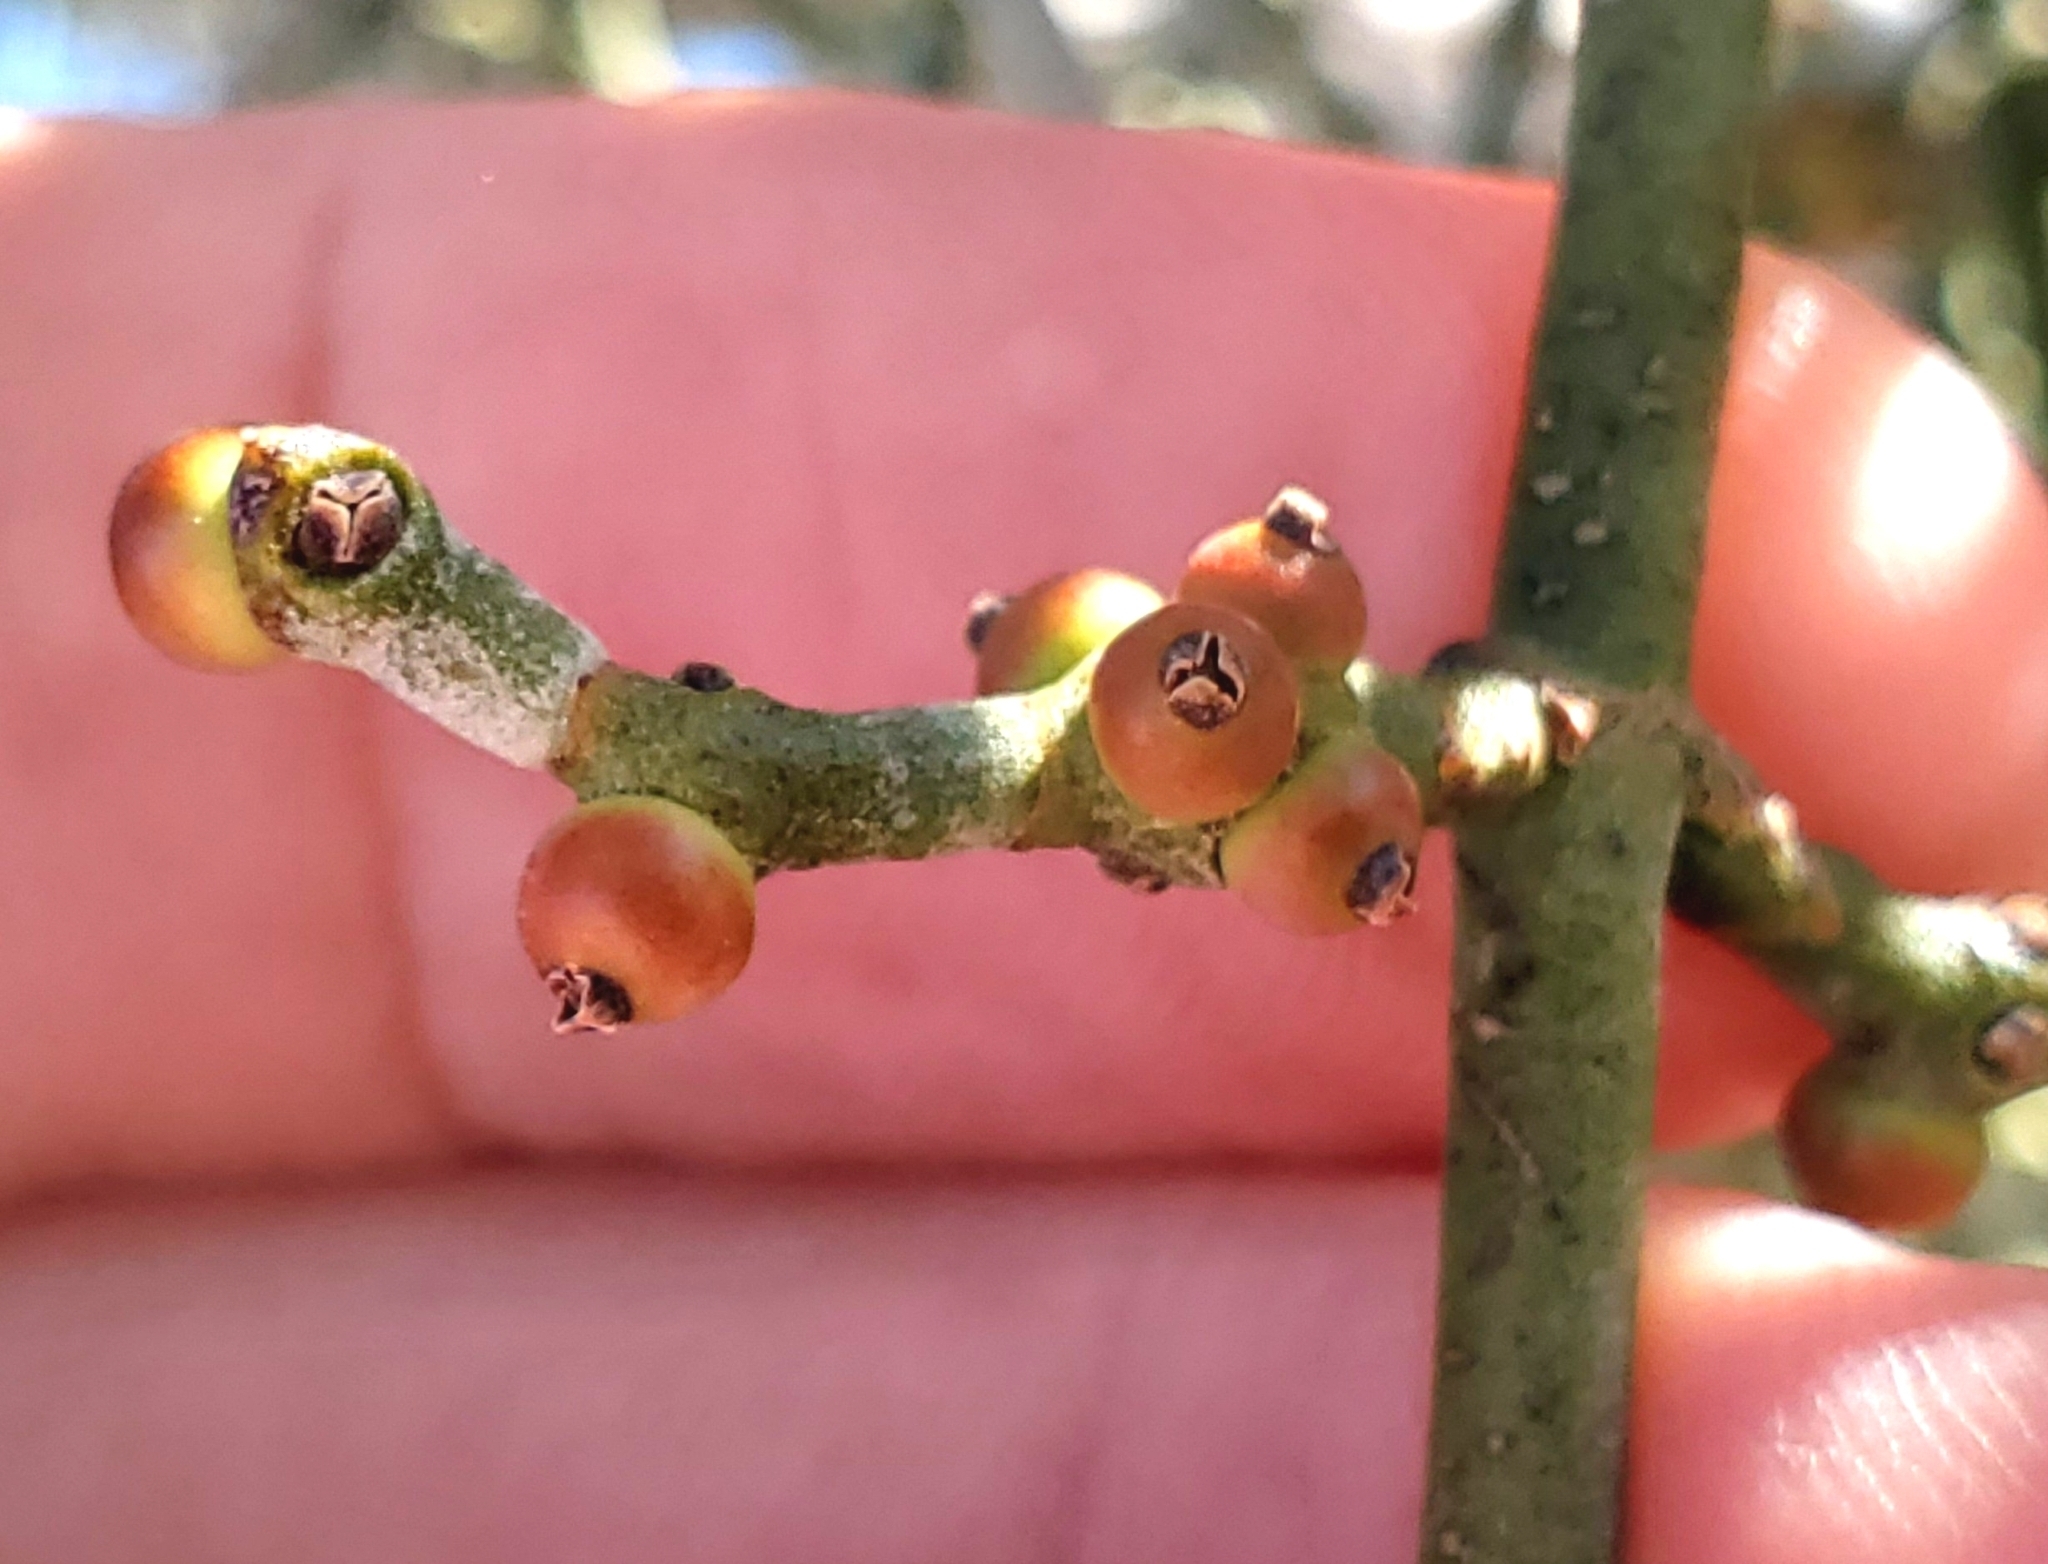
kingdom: Plantae
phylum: Tracheophyta
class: Magnoliopsida
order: Fabales
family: Fabaceae
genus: Olneya
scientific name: Olneya tesota
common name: Desert ironwood
